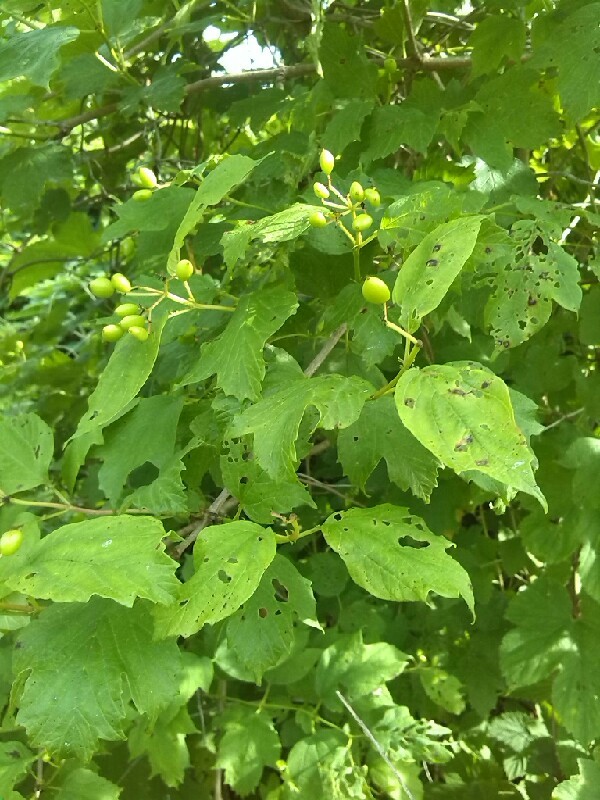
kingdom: Plantae
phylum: Tracheophyta
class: Magnoliopsida
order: Dipsacales
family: Viburnaceae
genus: Viburnum
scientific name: Viburnum opulus
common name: Guelder-rose
